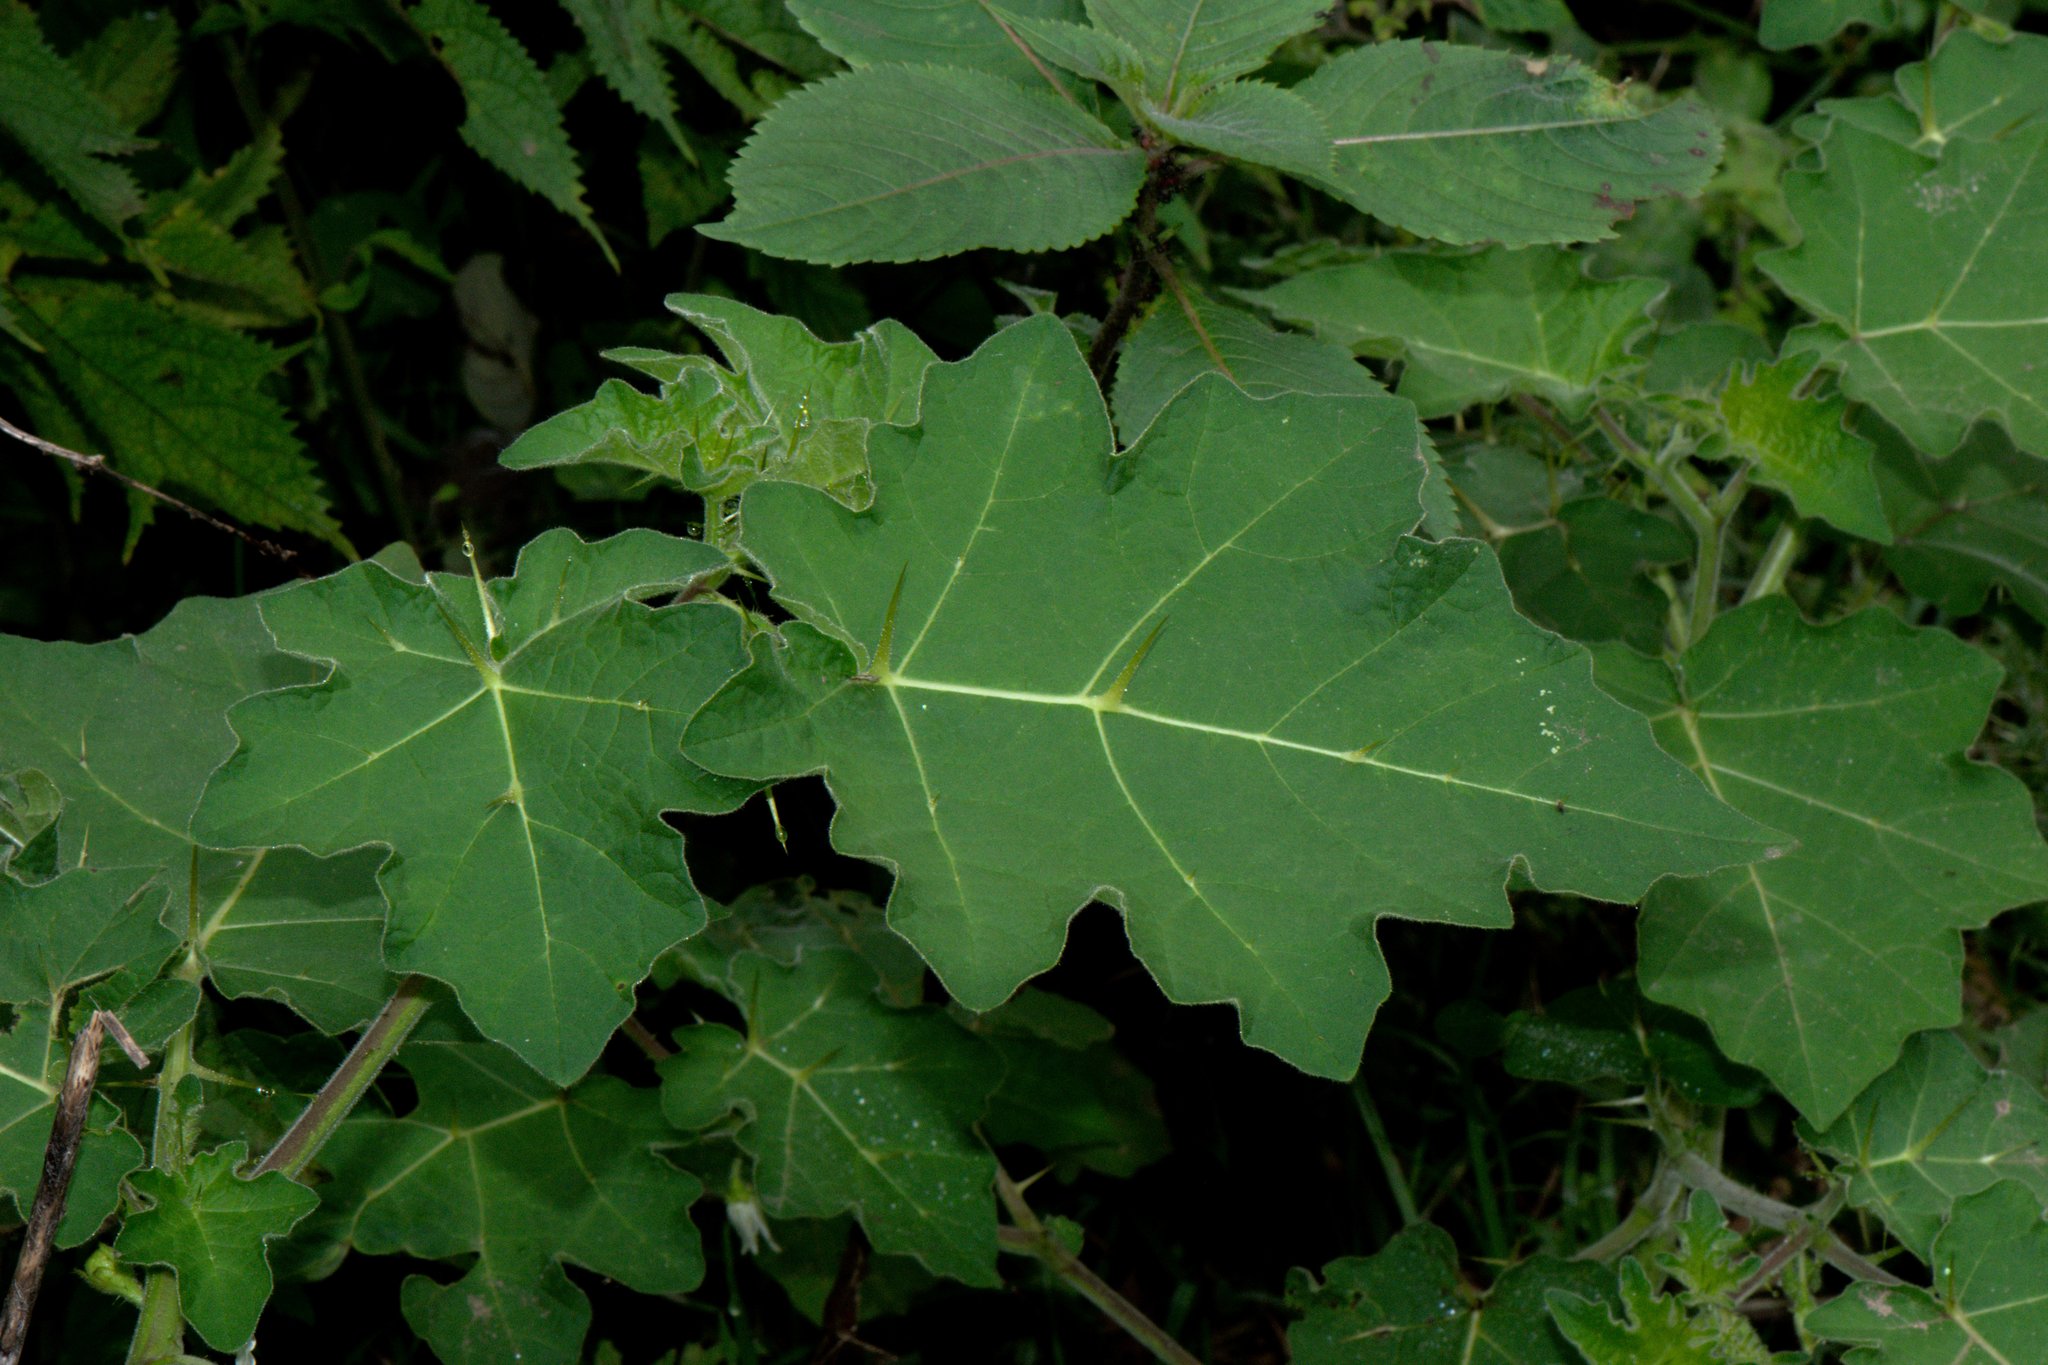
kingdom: Plantae
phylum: Tracheophyta
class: Magnoliopsida
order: Solanales
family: Solanaceae
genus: Solanum
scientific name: Solanum viarum
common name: Tropical soda apple
